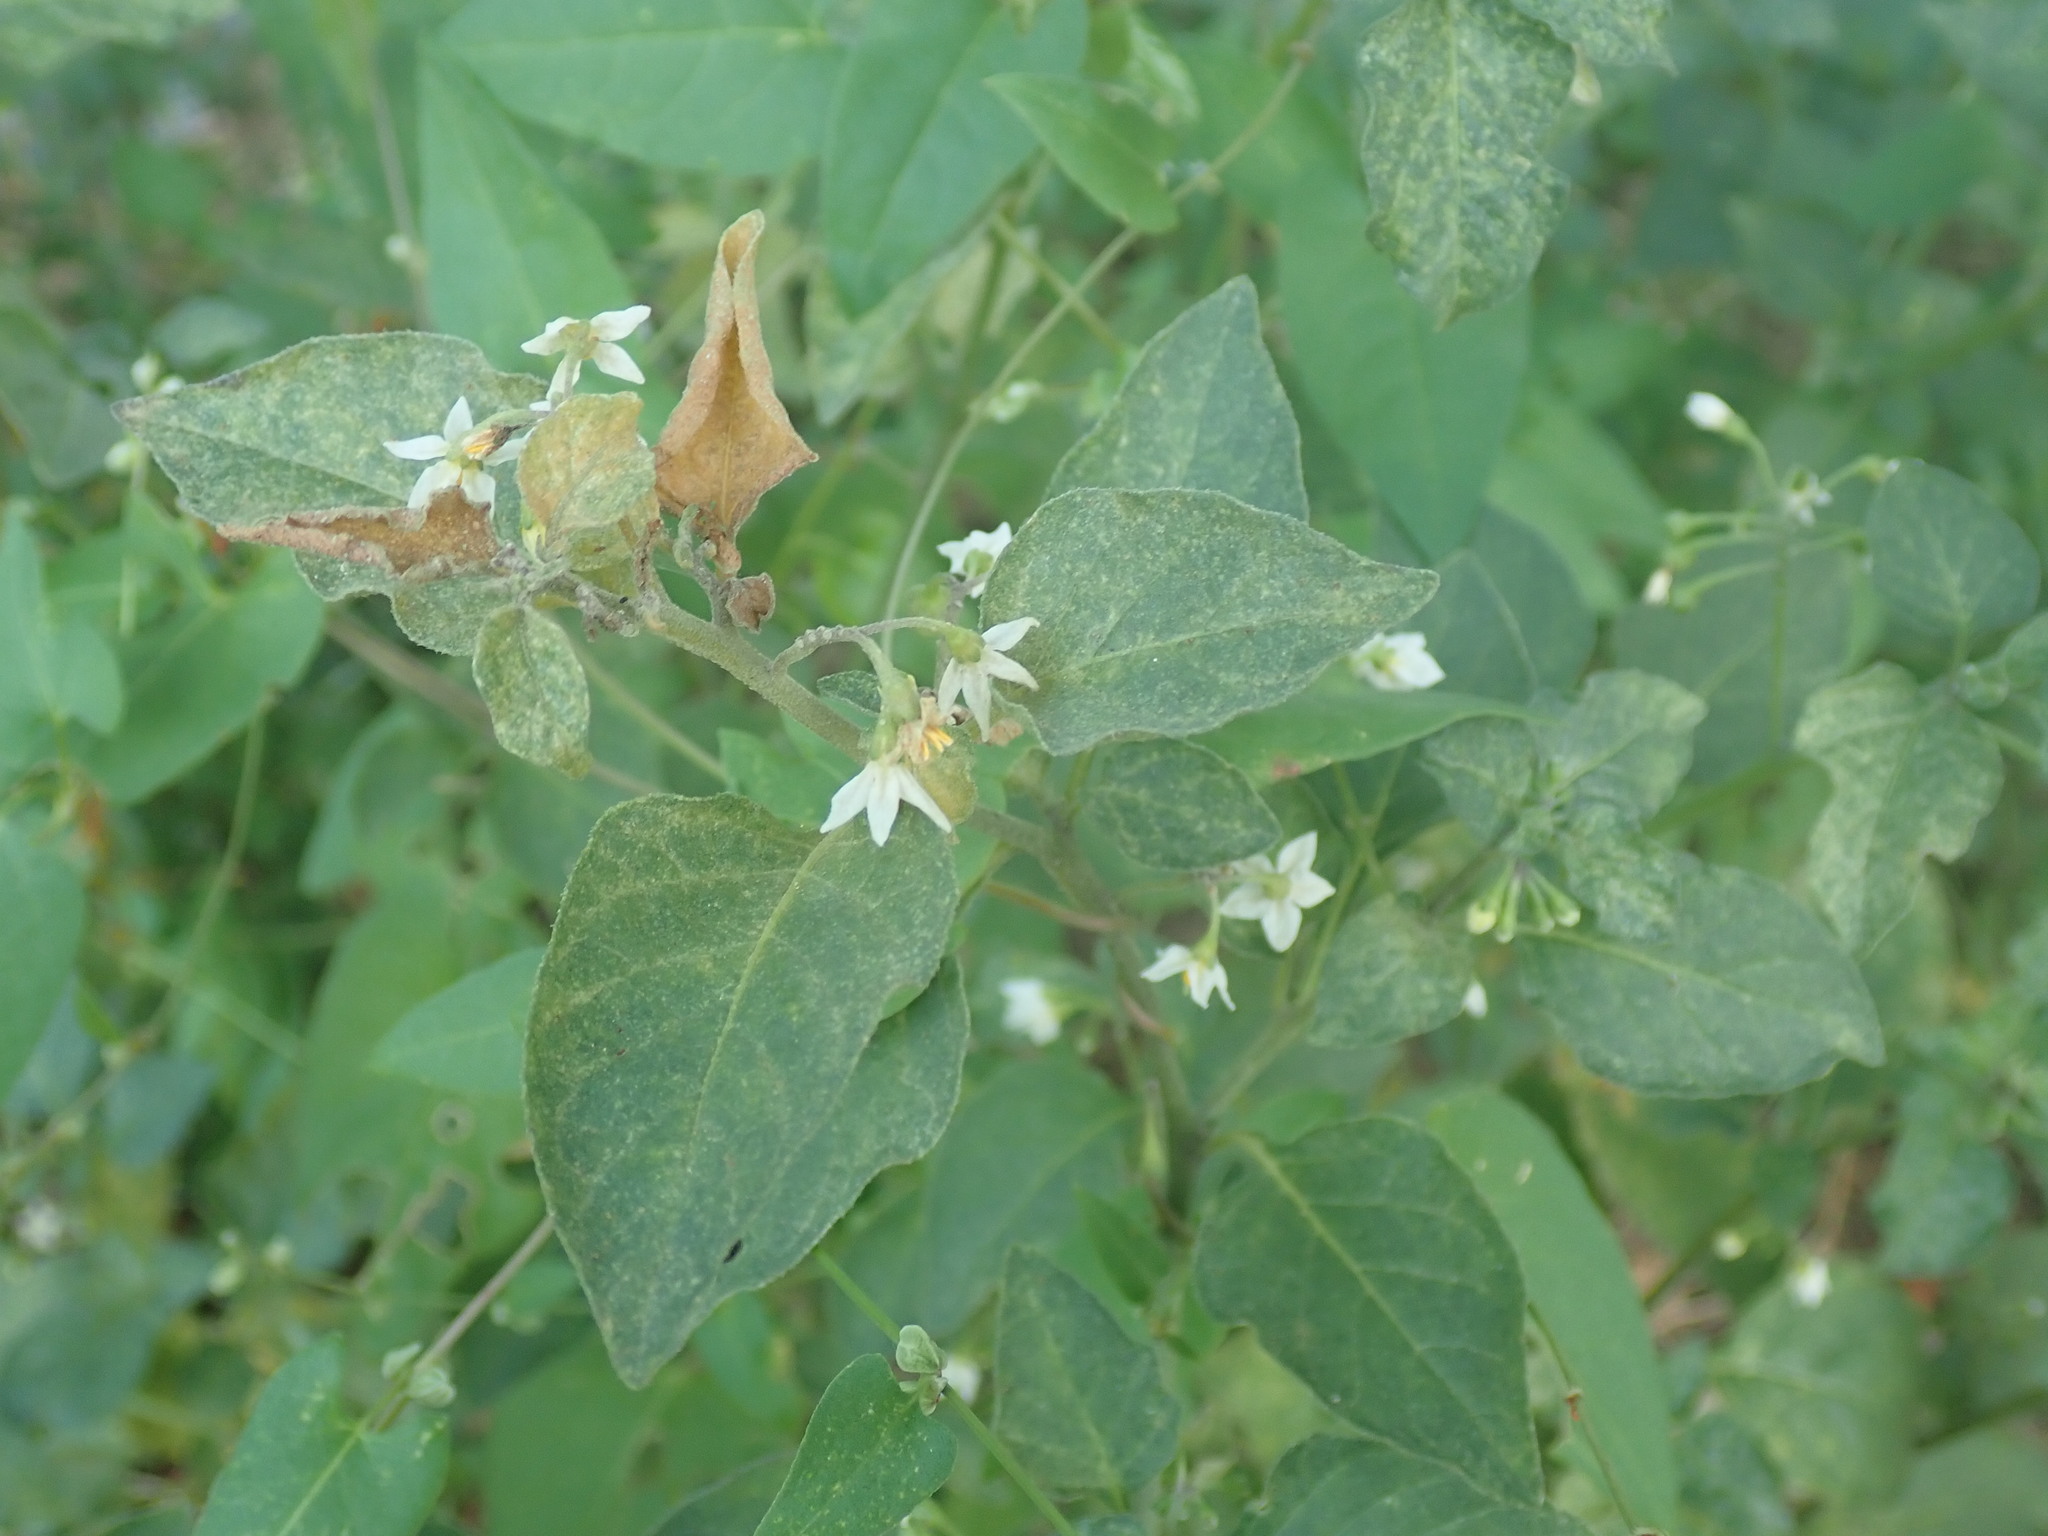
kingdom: Plantae
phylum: Tracheophyta
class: Magnoliopsida
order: Solanales
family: Solanaceae
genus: Solanum
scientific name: Solanum nigrum
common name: Black nightshade
